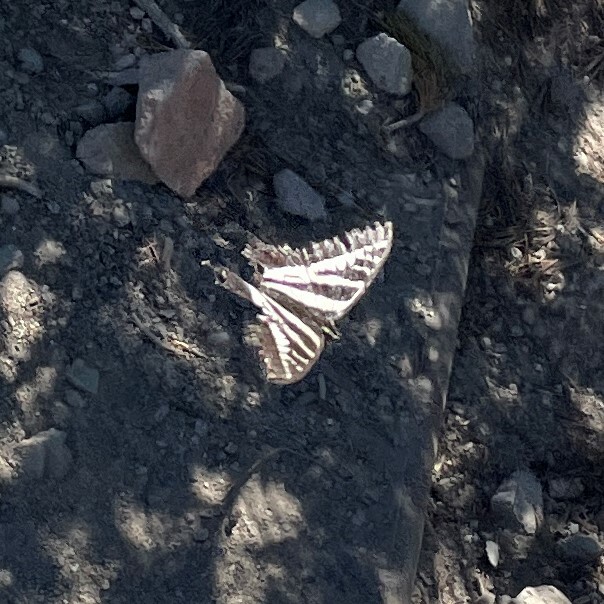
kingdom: Animalia
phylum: Arthropoda
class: Insecta
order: Lepidoptera
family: Papilionidae
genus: Papilio
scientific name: Papilio eurymedon
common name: Pale tiger swallowtail
